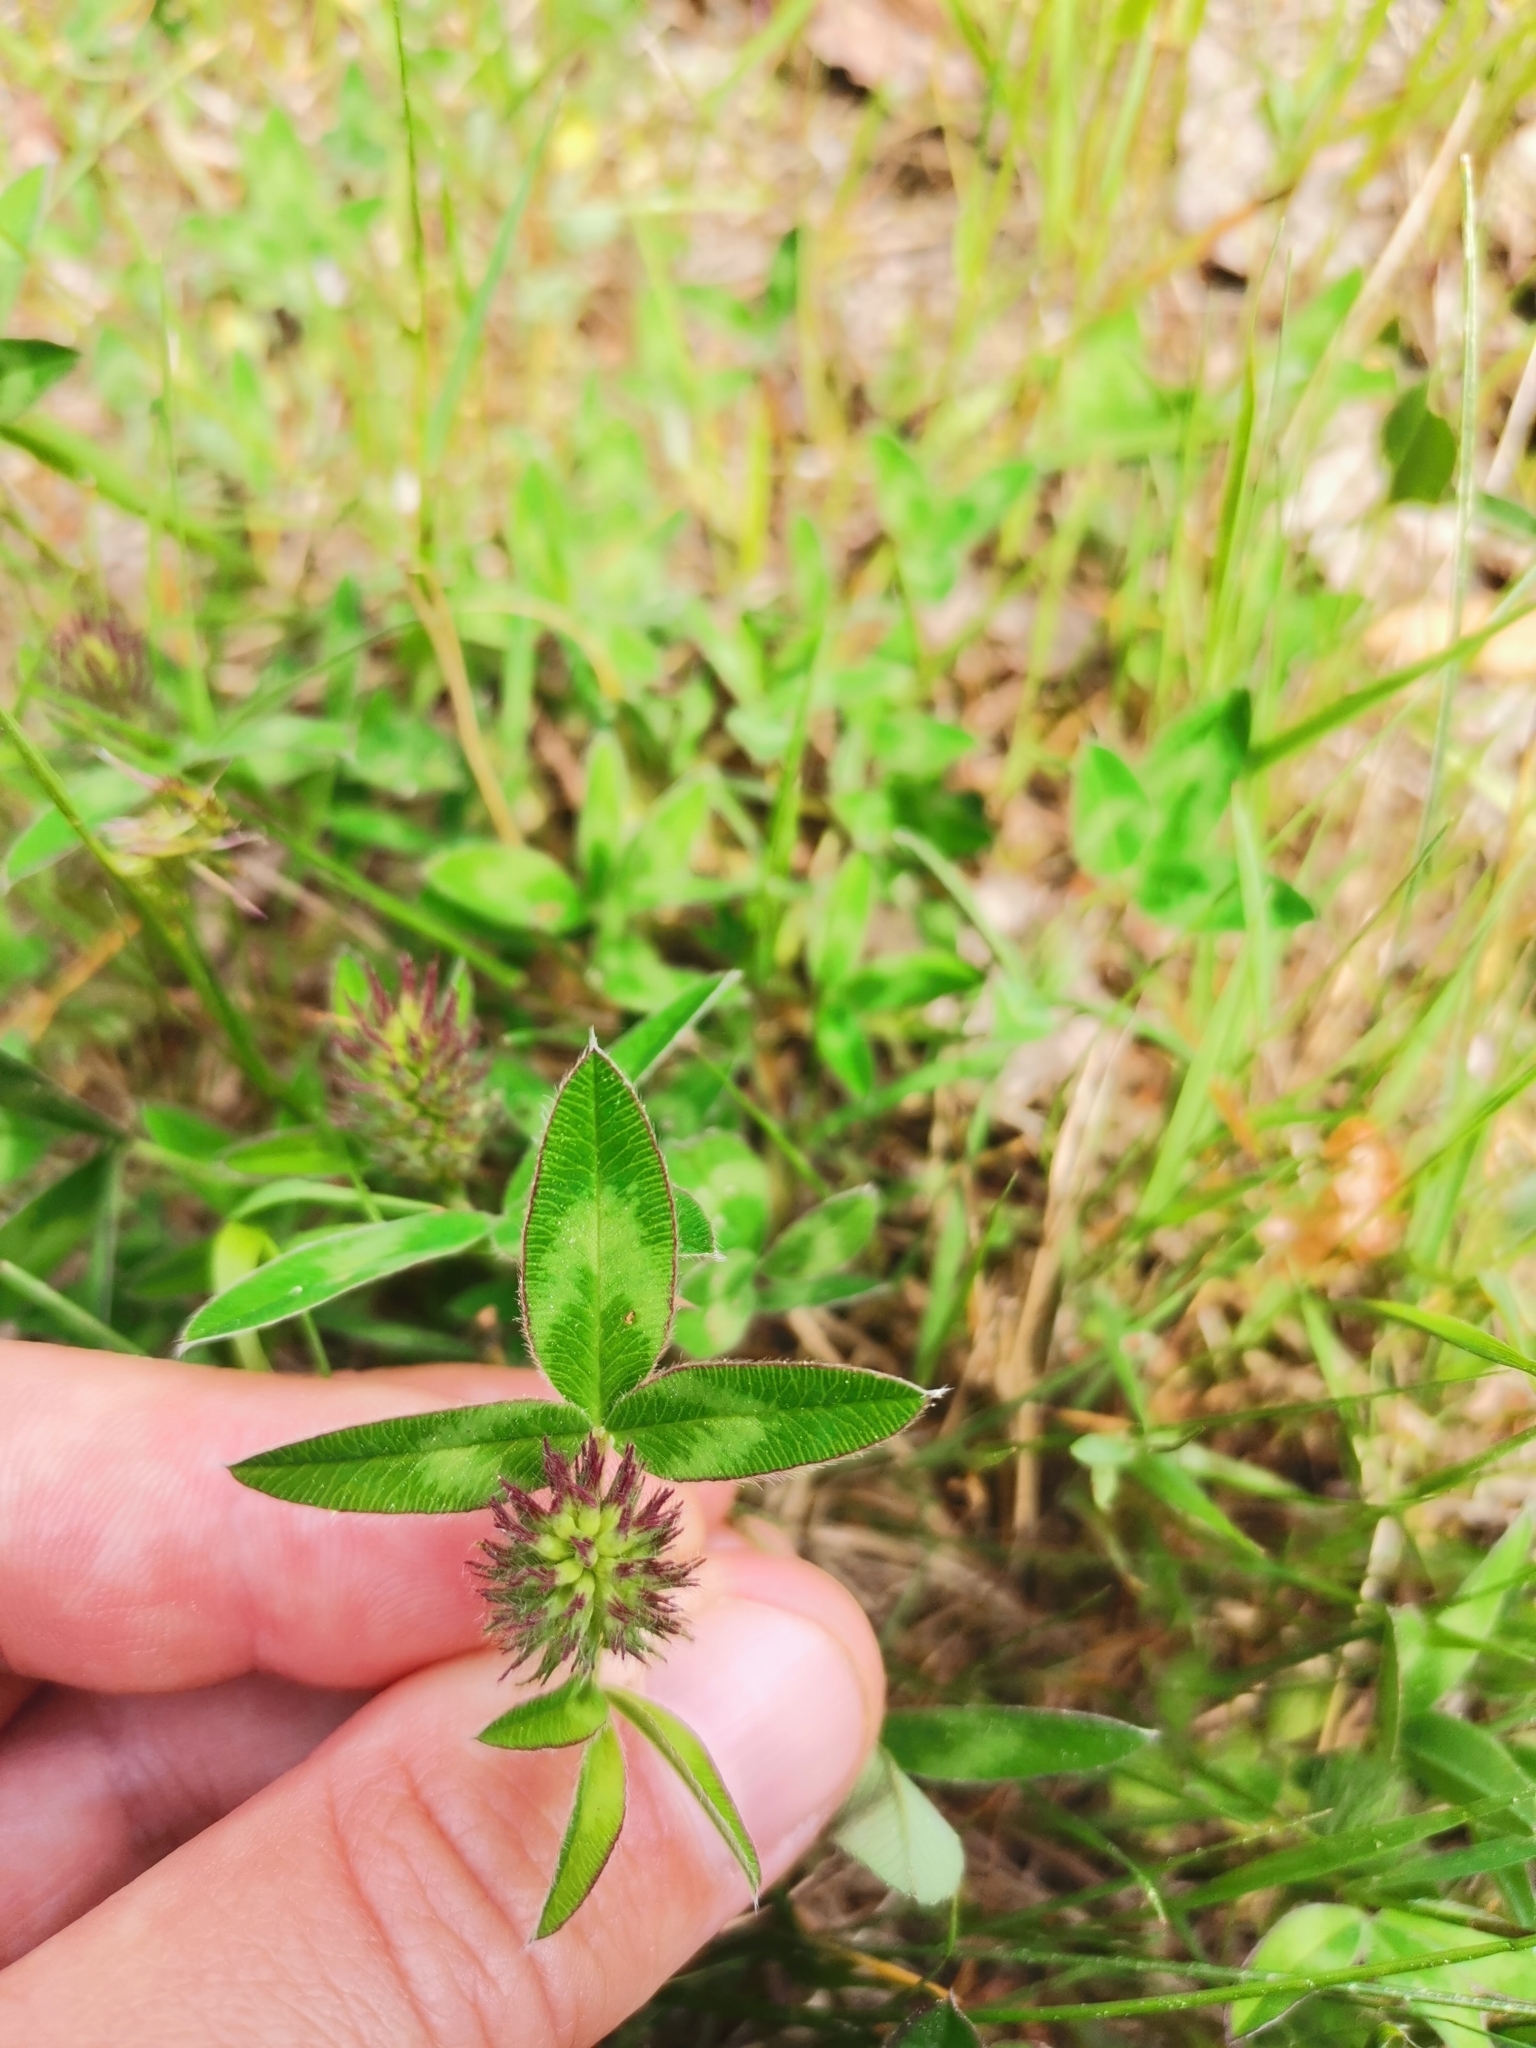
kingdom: Plantae
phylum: Tracheophyta
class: Magnoliopsida
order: Fabales
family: Fabaceae
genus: Trifolium
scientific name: Trifolium medium
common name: Zigzag clover
